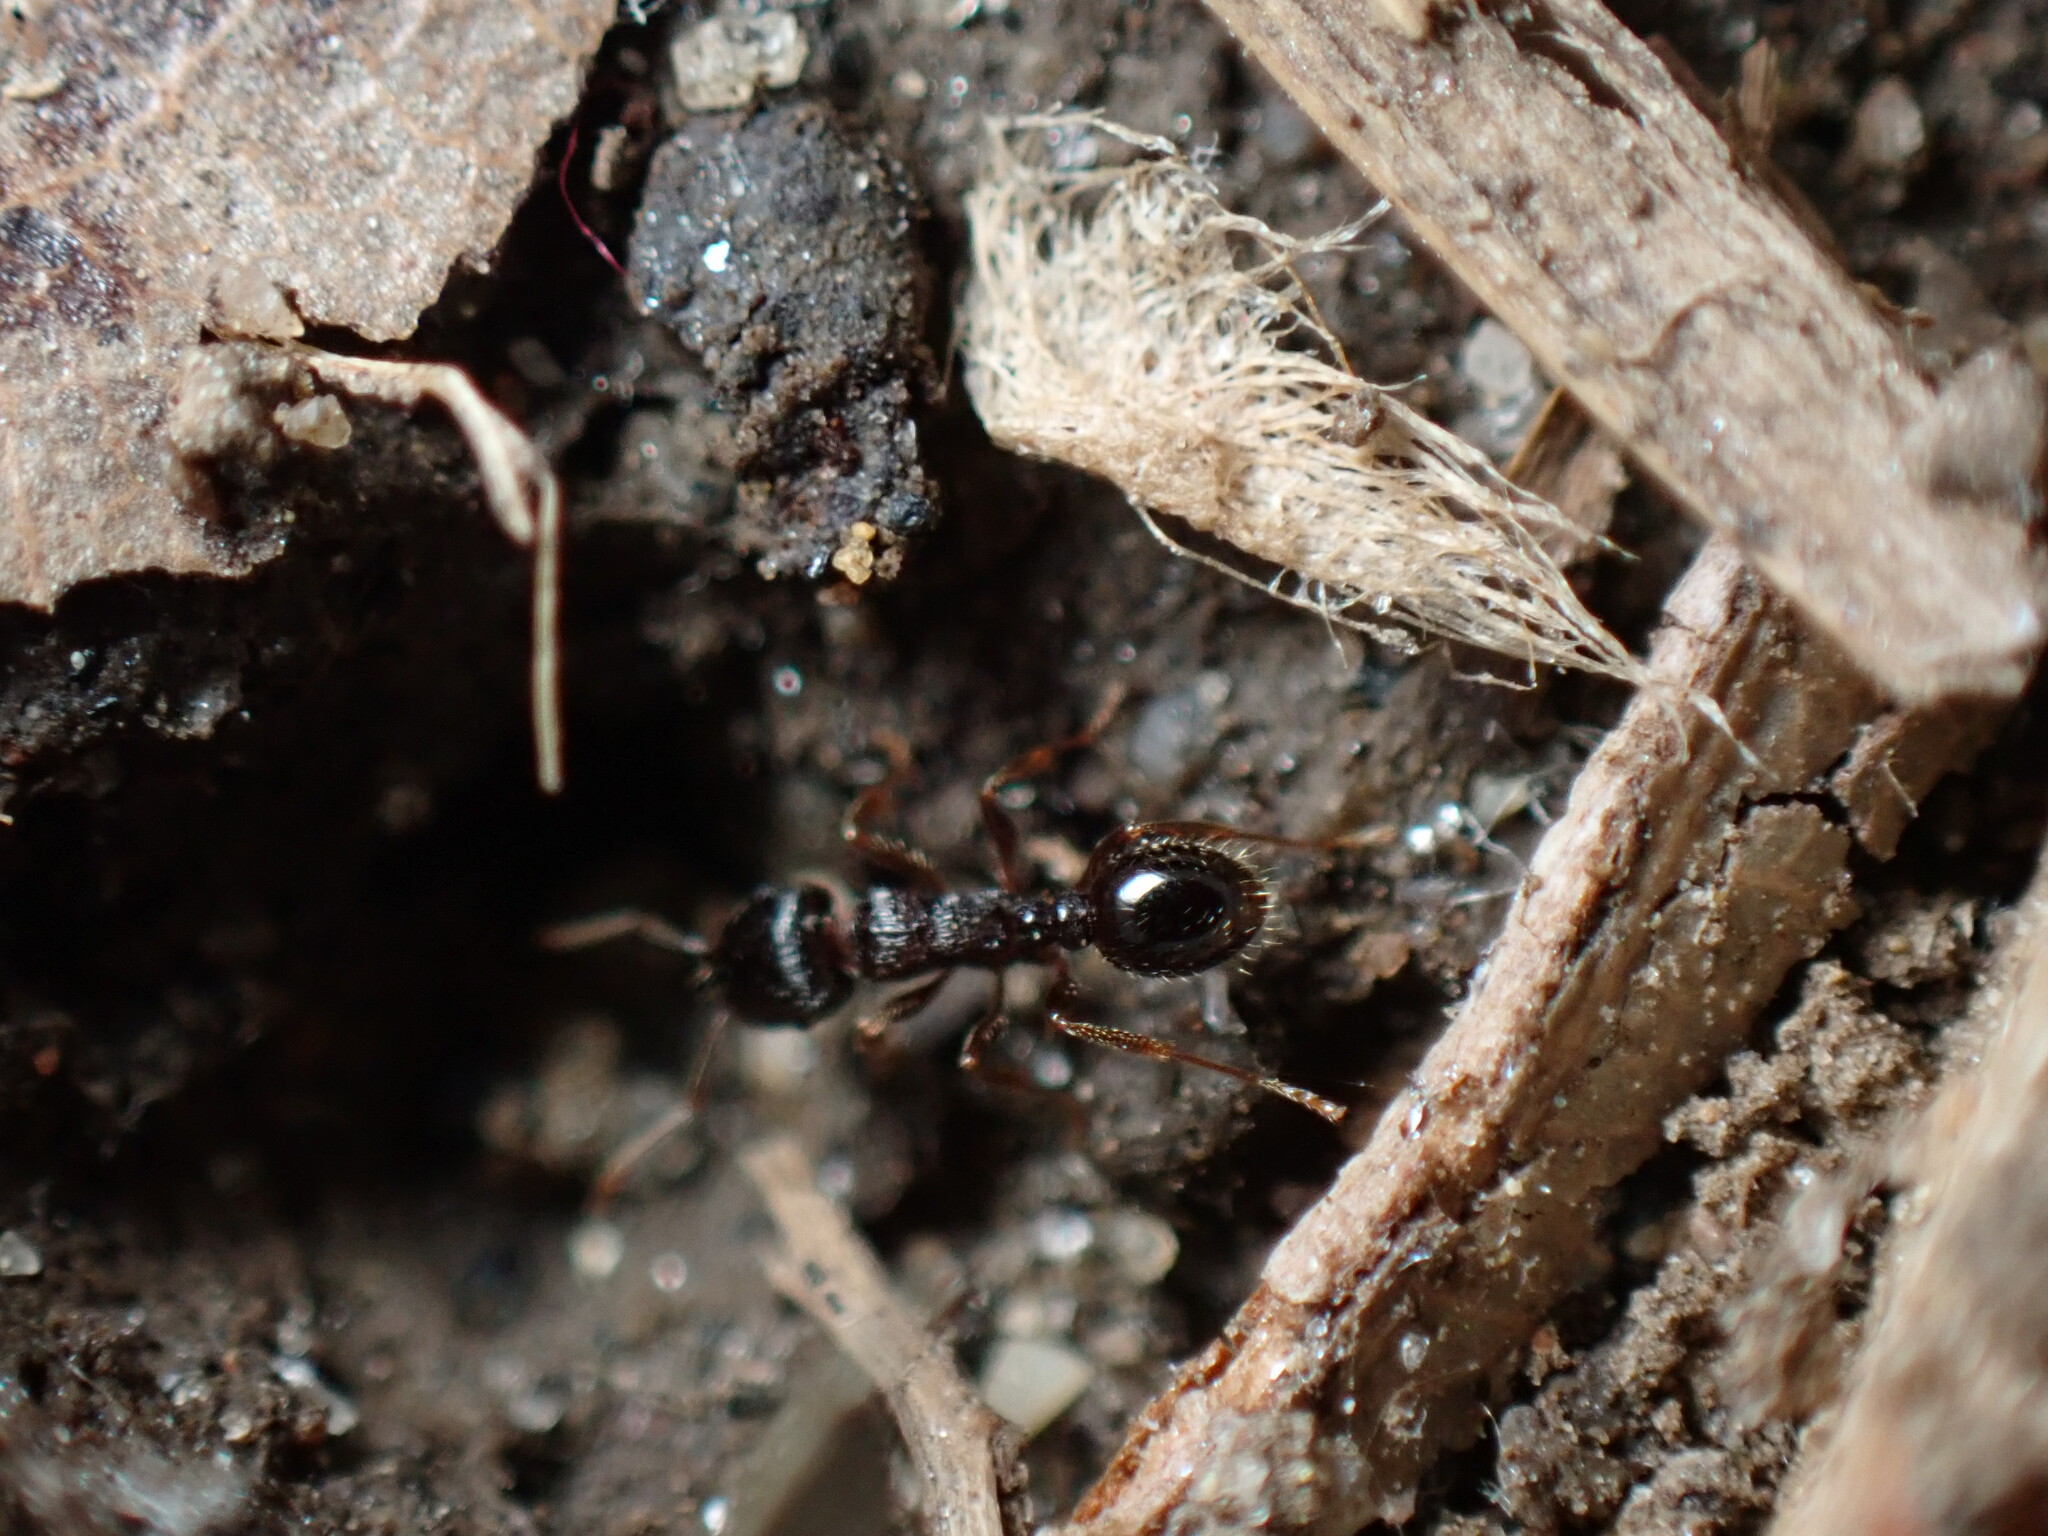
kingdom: Animalia
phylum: Arthropoda
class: Insecta
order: Hymenoptera
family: Formicidae
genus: Tetramorium
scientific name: Tetramorium immigrans
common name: Pavement ant
